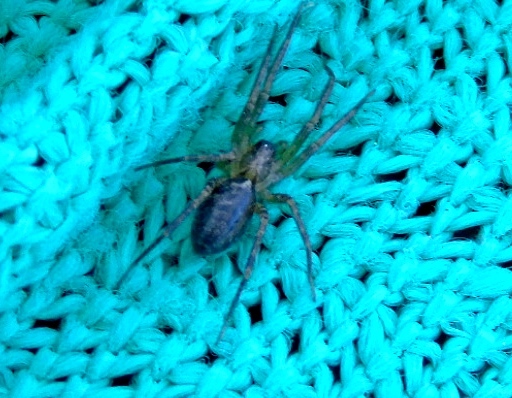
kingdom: Animalia
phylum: Arthropoda
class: Arachnida
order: Araneae
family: Corinnidae
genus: Castianeira
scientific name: Castianeira
